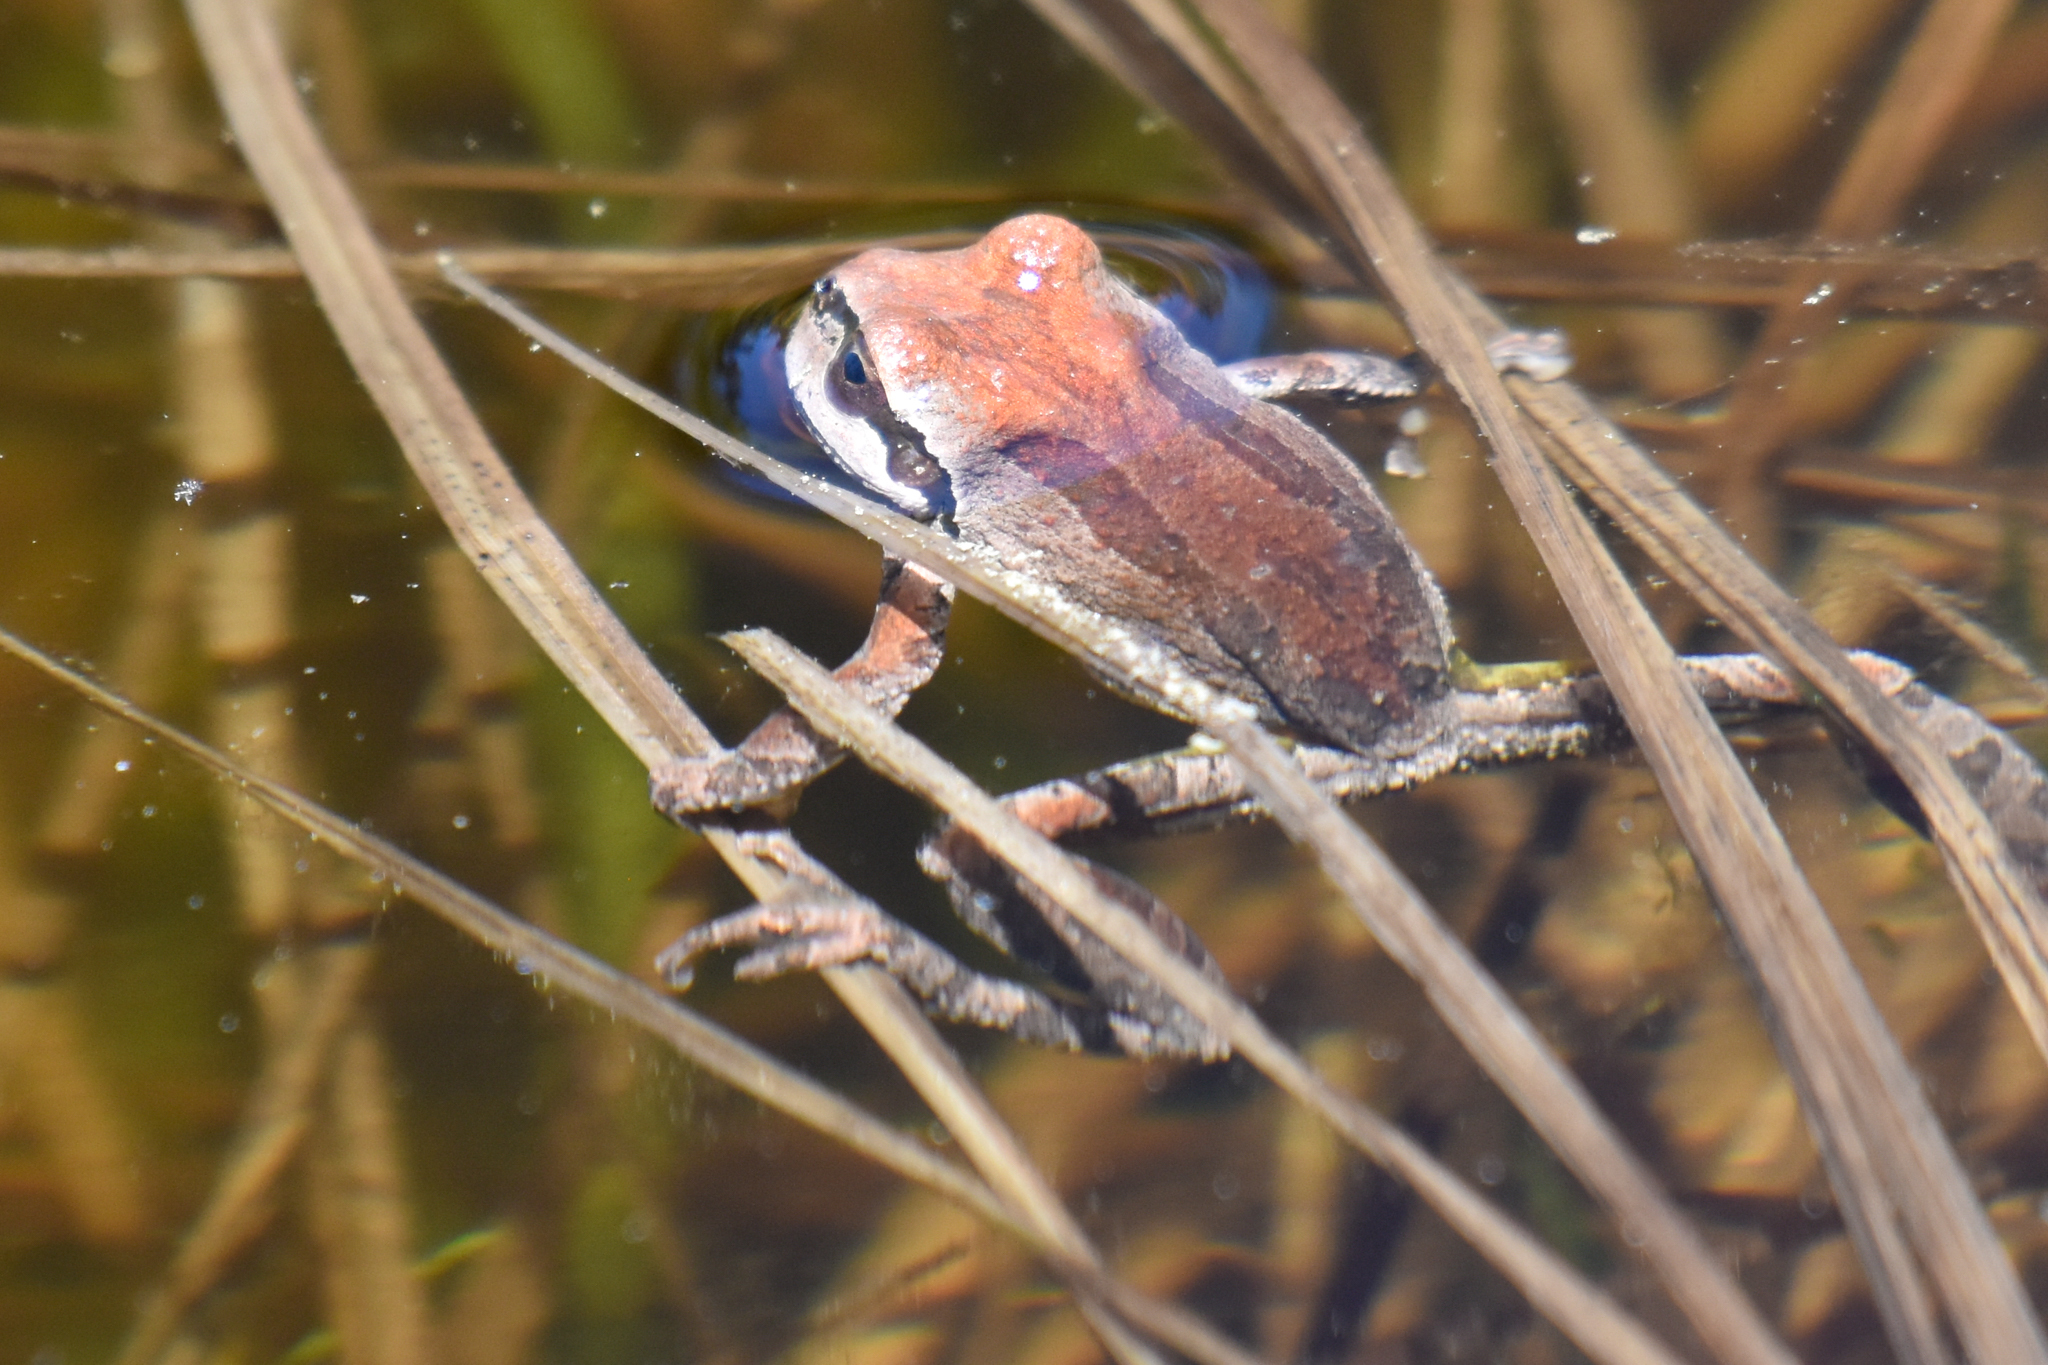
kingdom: Animalia
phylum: Chordata
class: Amphibia
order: Anura
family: Hylidae
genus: Pseudacris
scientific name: Pseudacris regilla
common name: Pacific chorus frog
